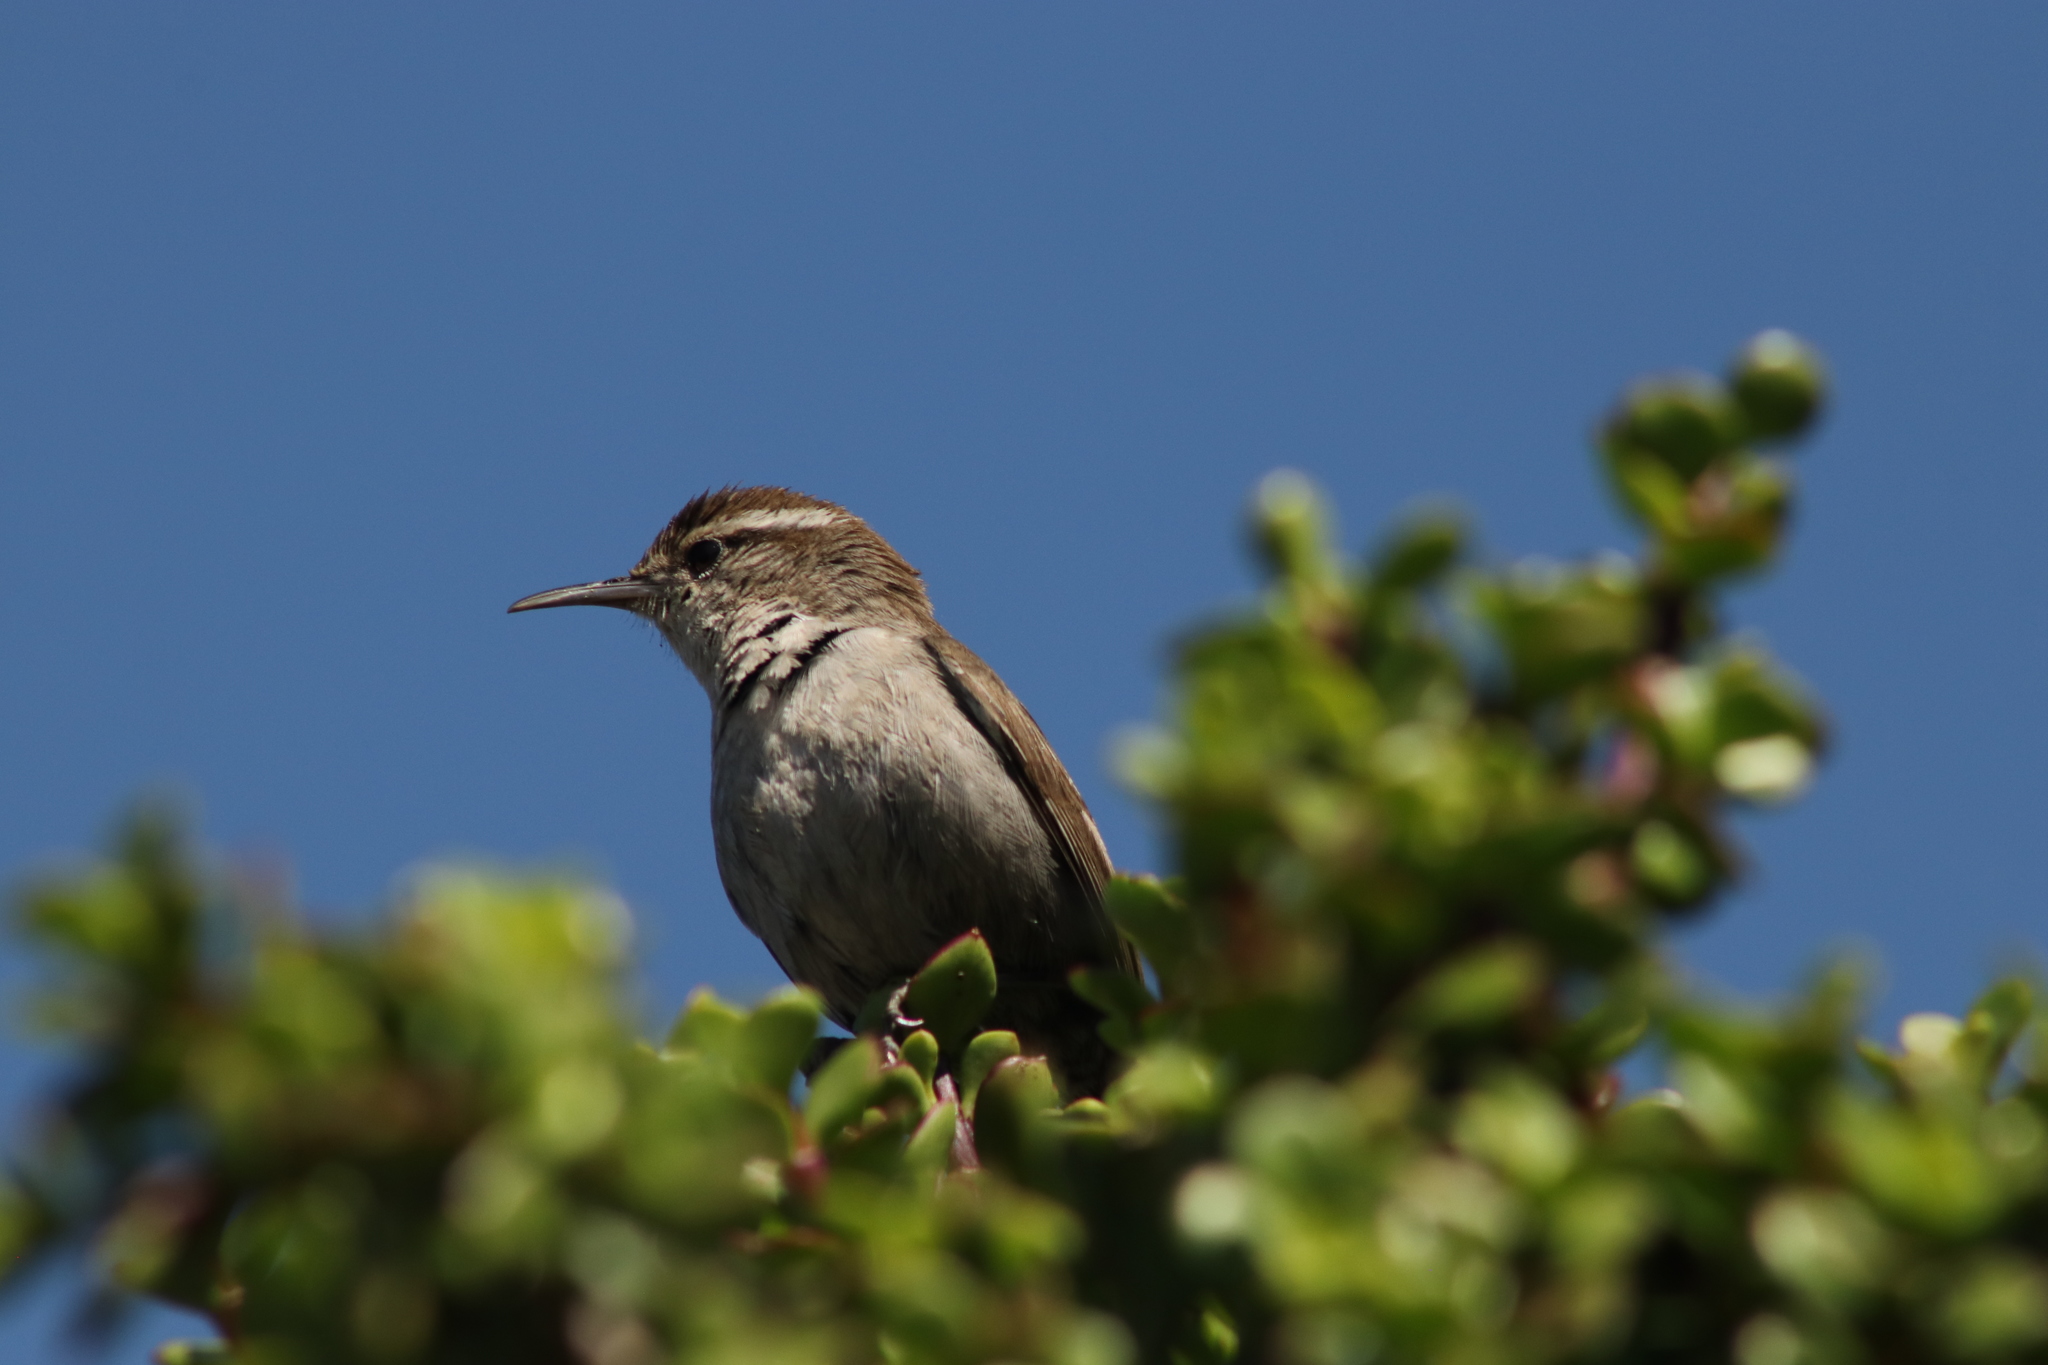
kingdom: Animalia
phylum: Chordata
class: Aves
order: Passeriformes
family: Troglodytidae
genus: Thryomanes
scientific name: Thryomanes bewickii
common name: Bewick's wren
